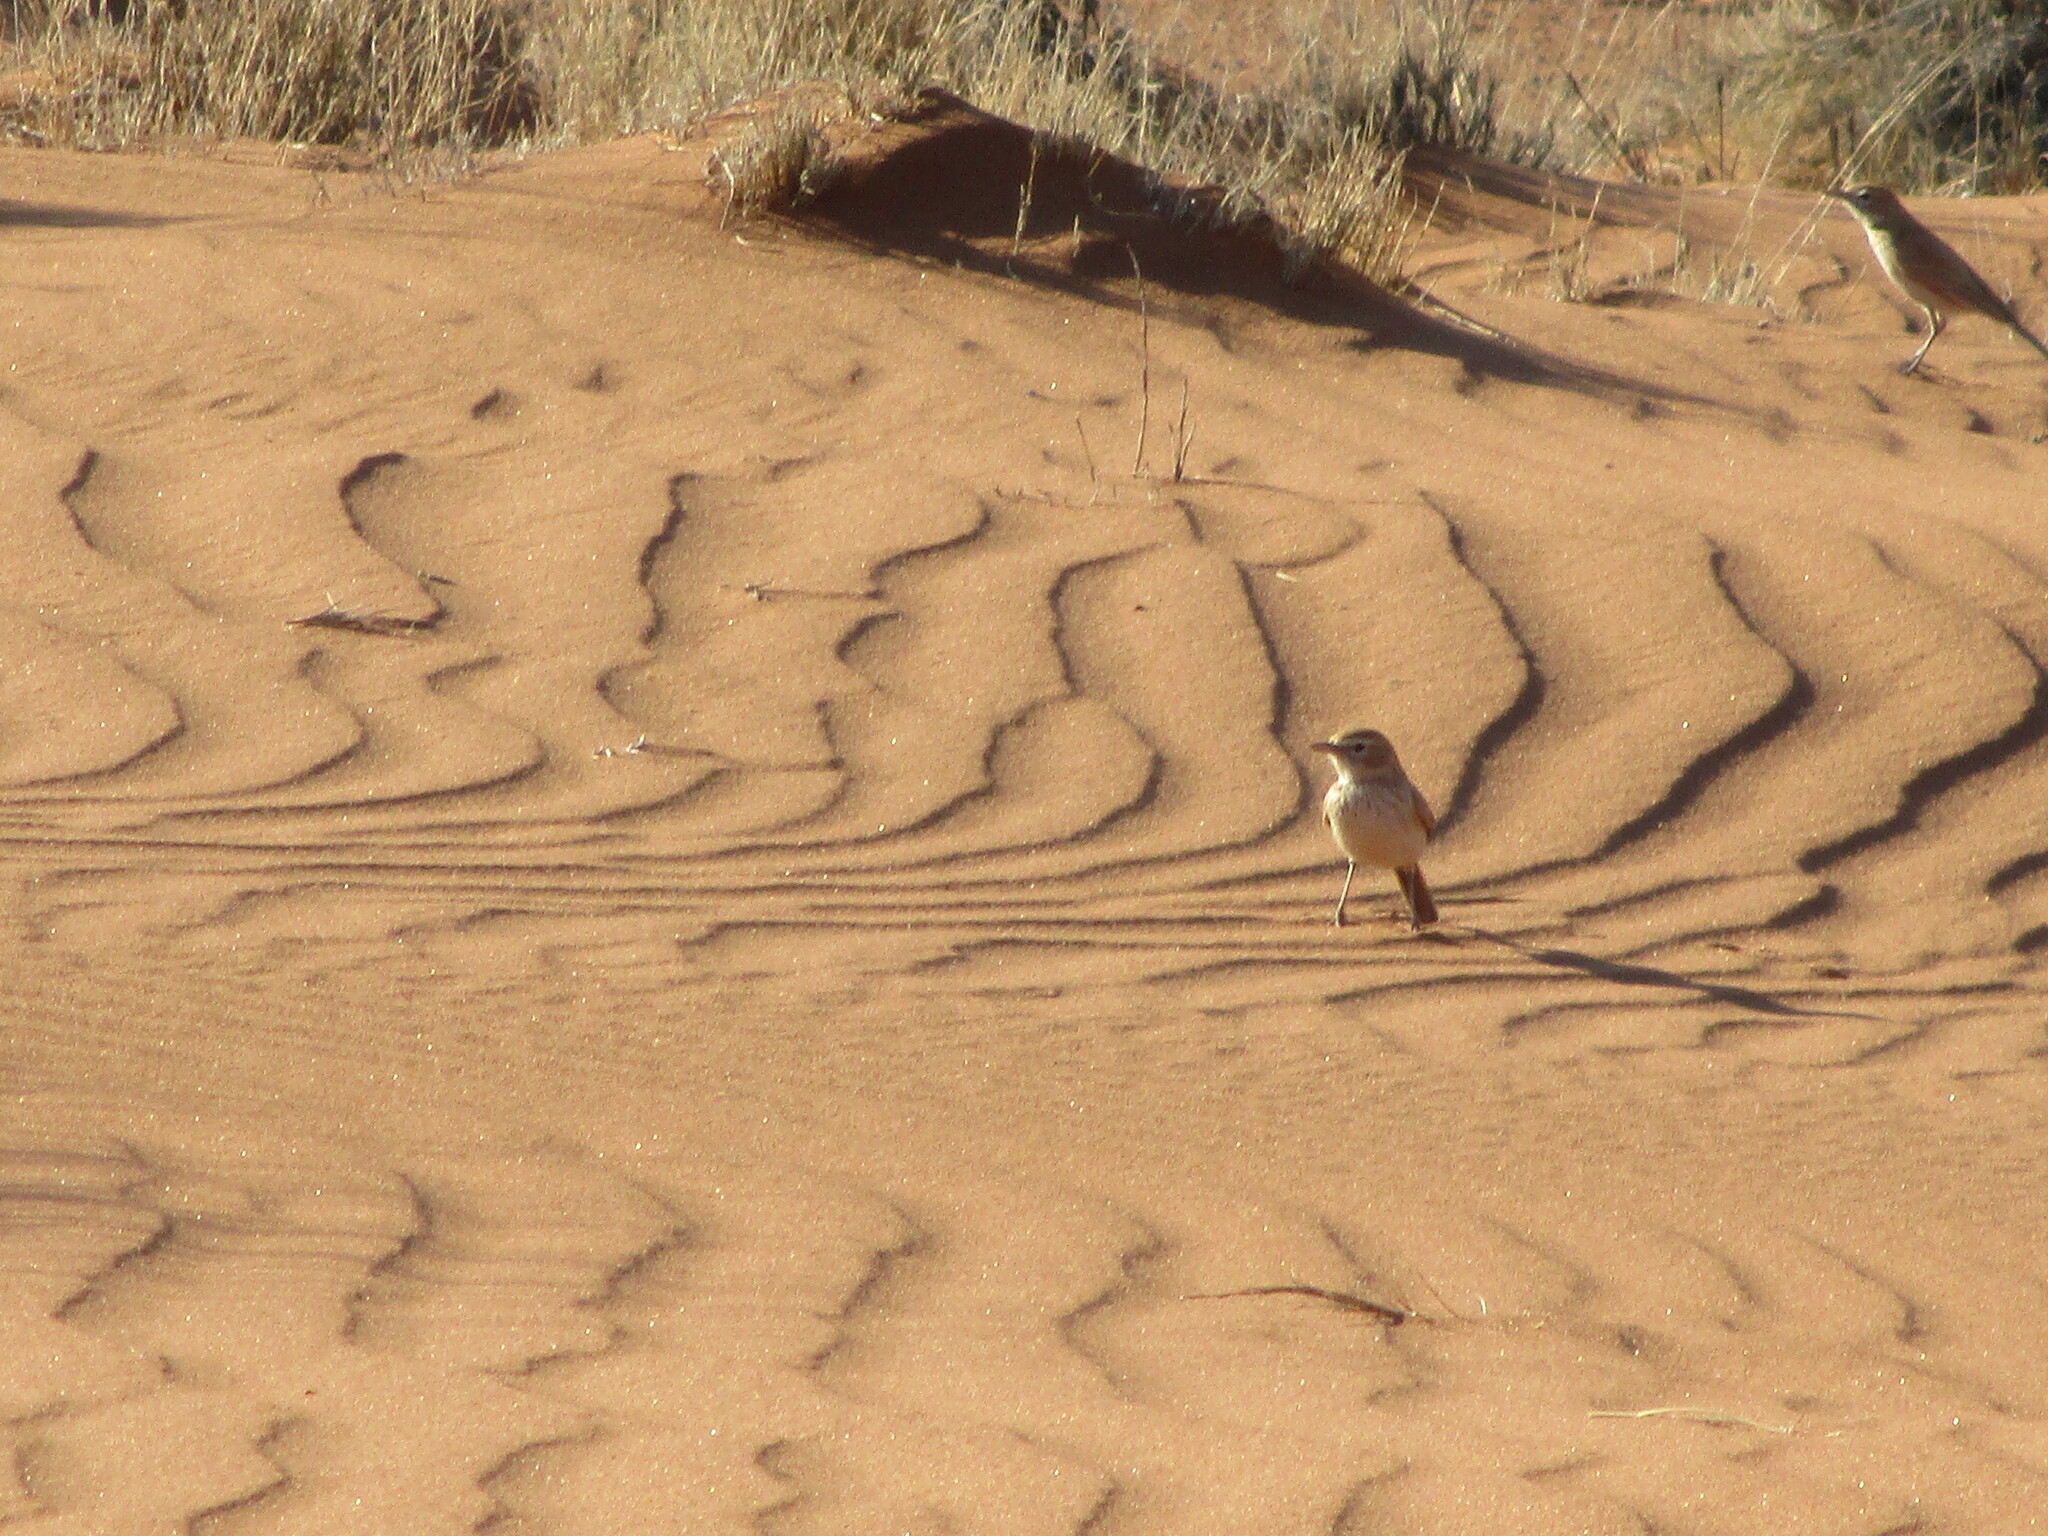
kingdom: Animalia
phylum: Chordata
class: Aves
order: Passeriformes
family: Alaudidae
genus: Calendulauda
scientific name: Calendulauda erythrochlamys
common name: Dune lark
